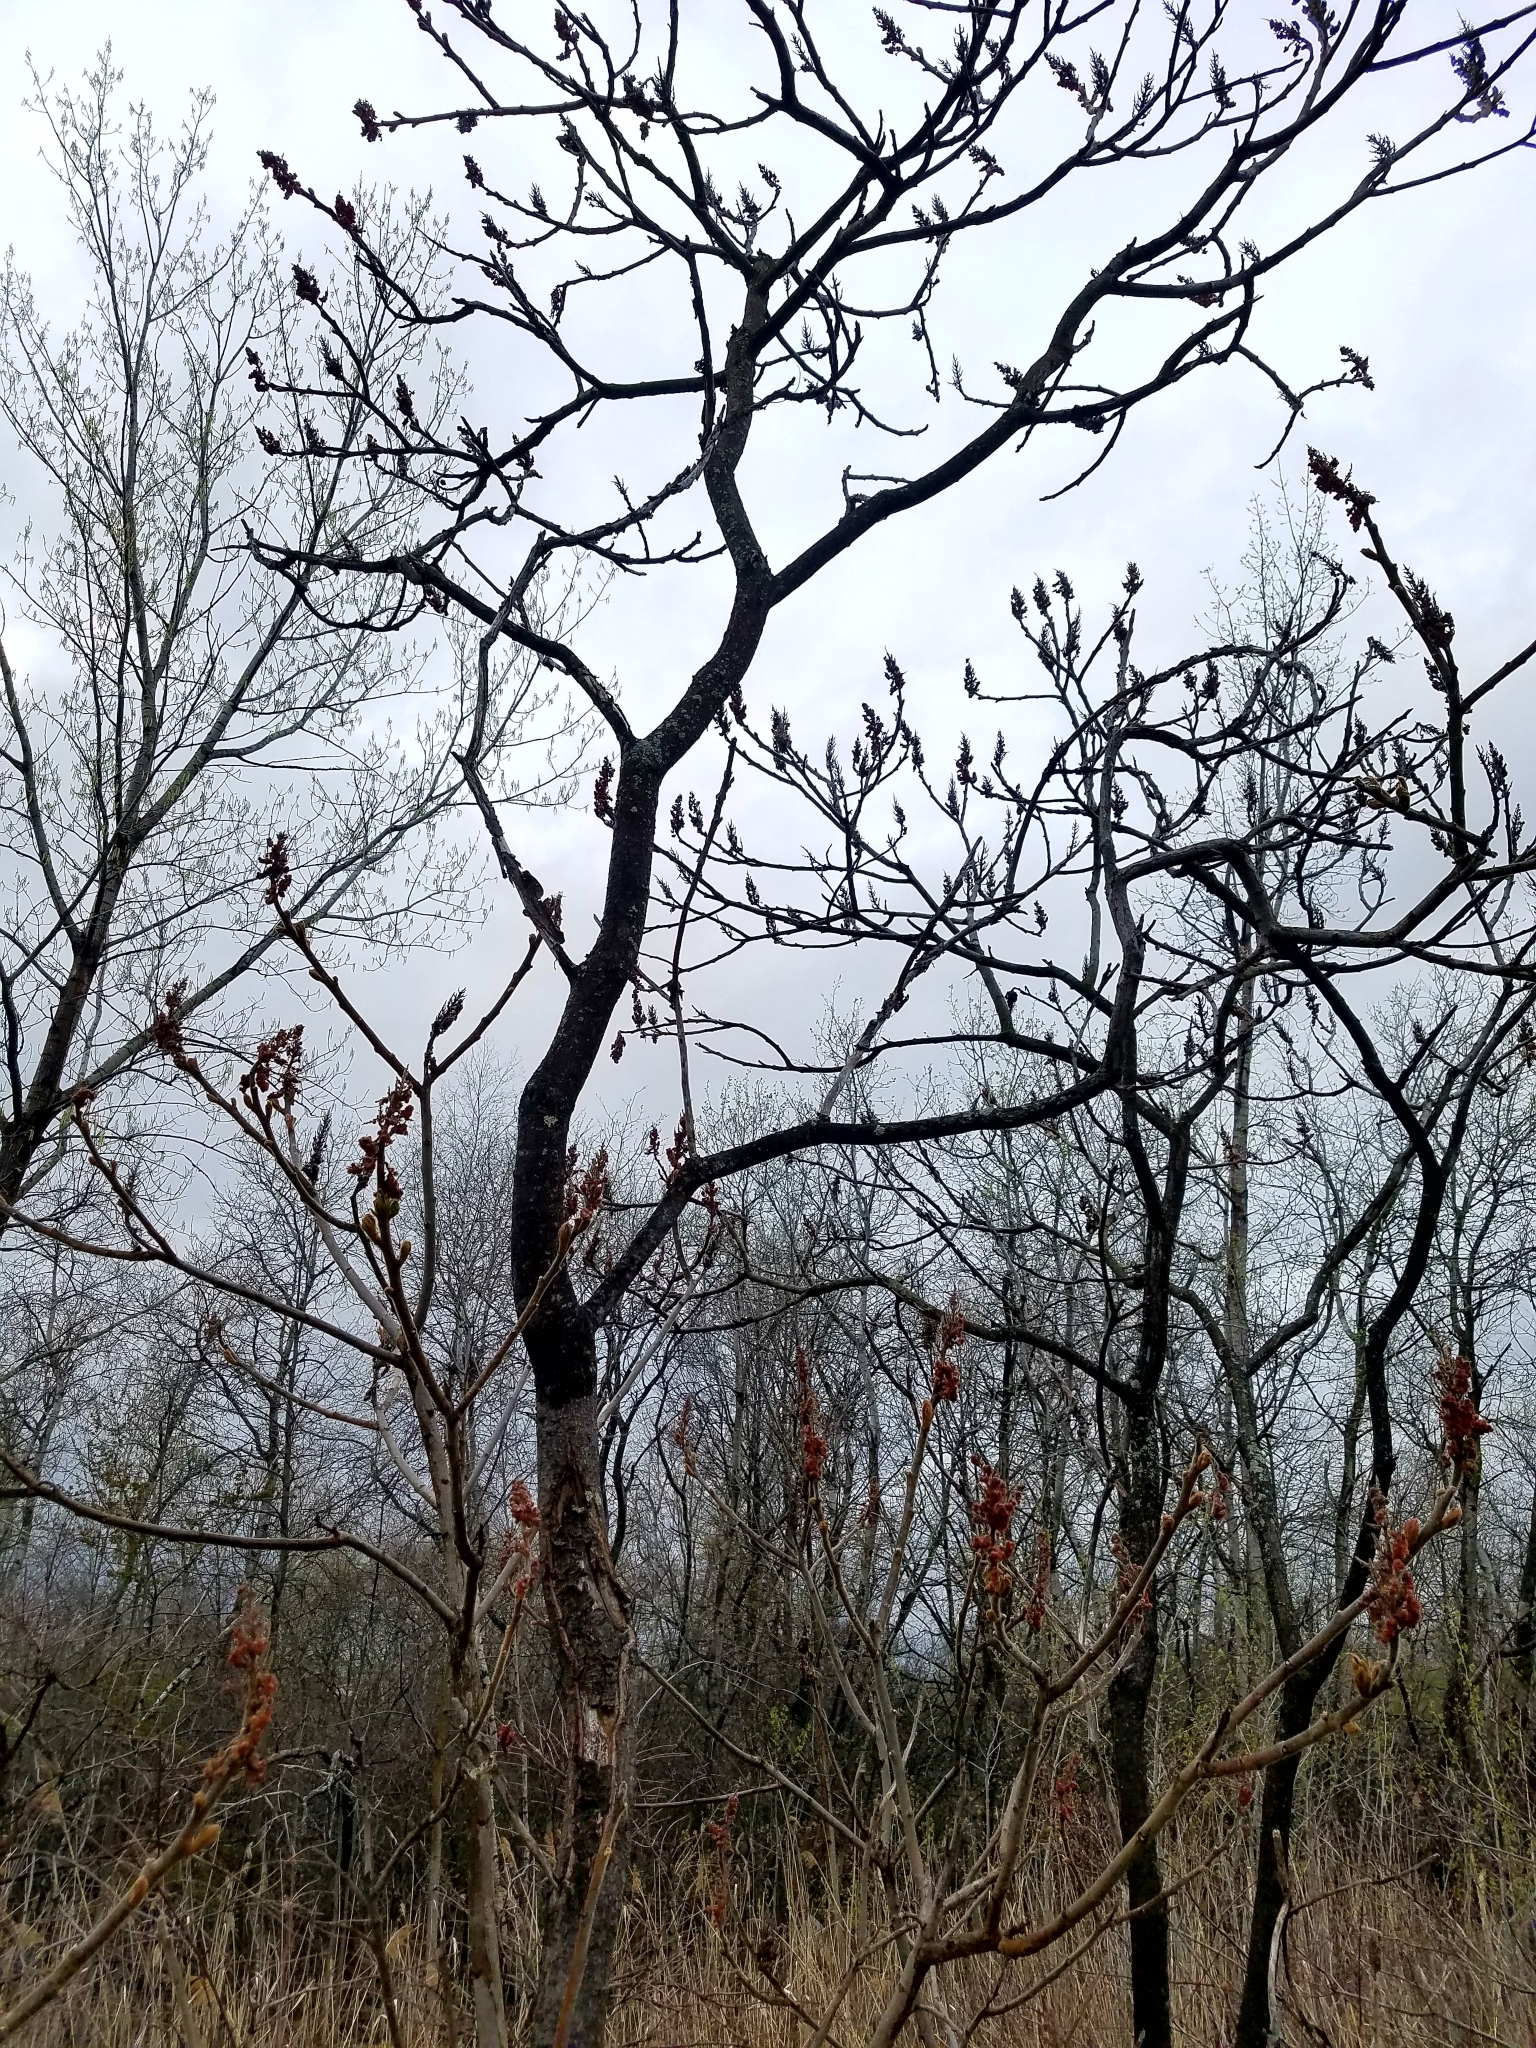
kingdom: Plantae
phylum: Tracheophyta
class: Magnoliopsida
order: Sapindales
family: Anacardiaceae
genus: Rhus
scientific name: Rhus typhina
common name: Staghorn sumac
